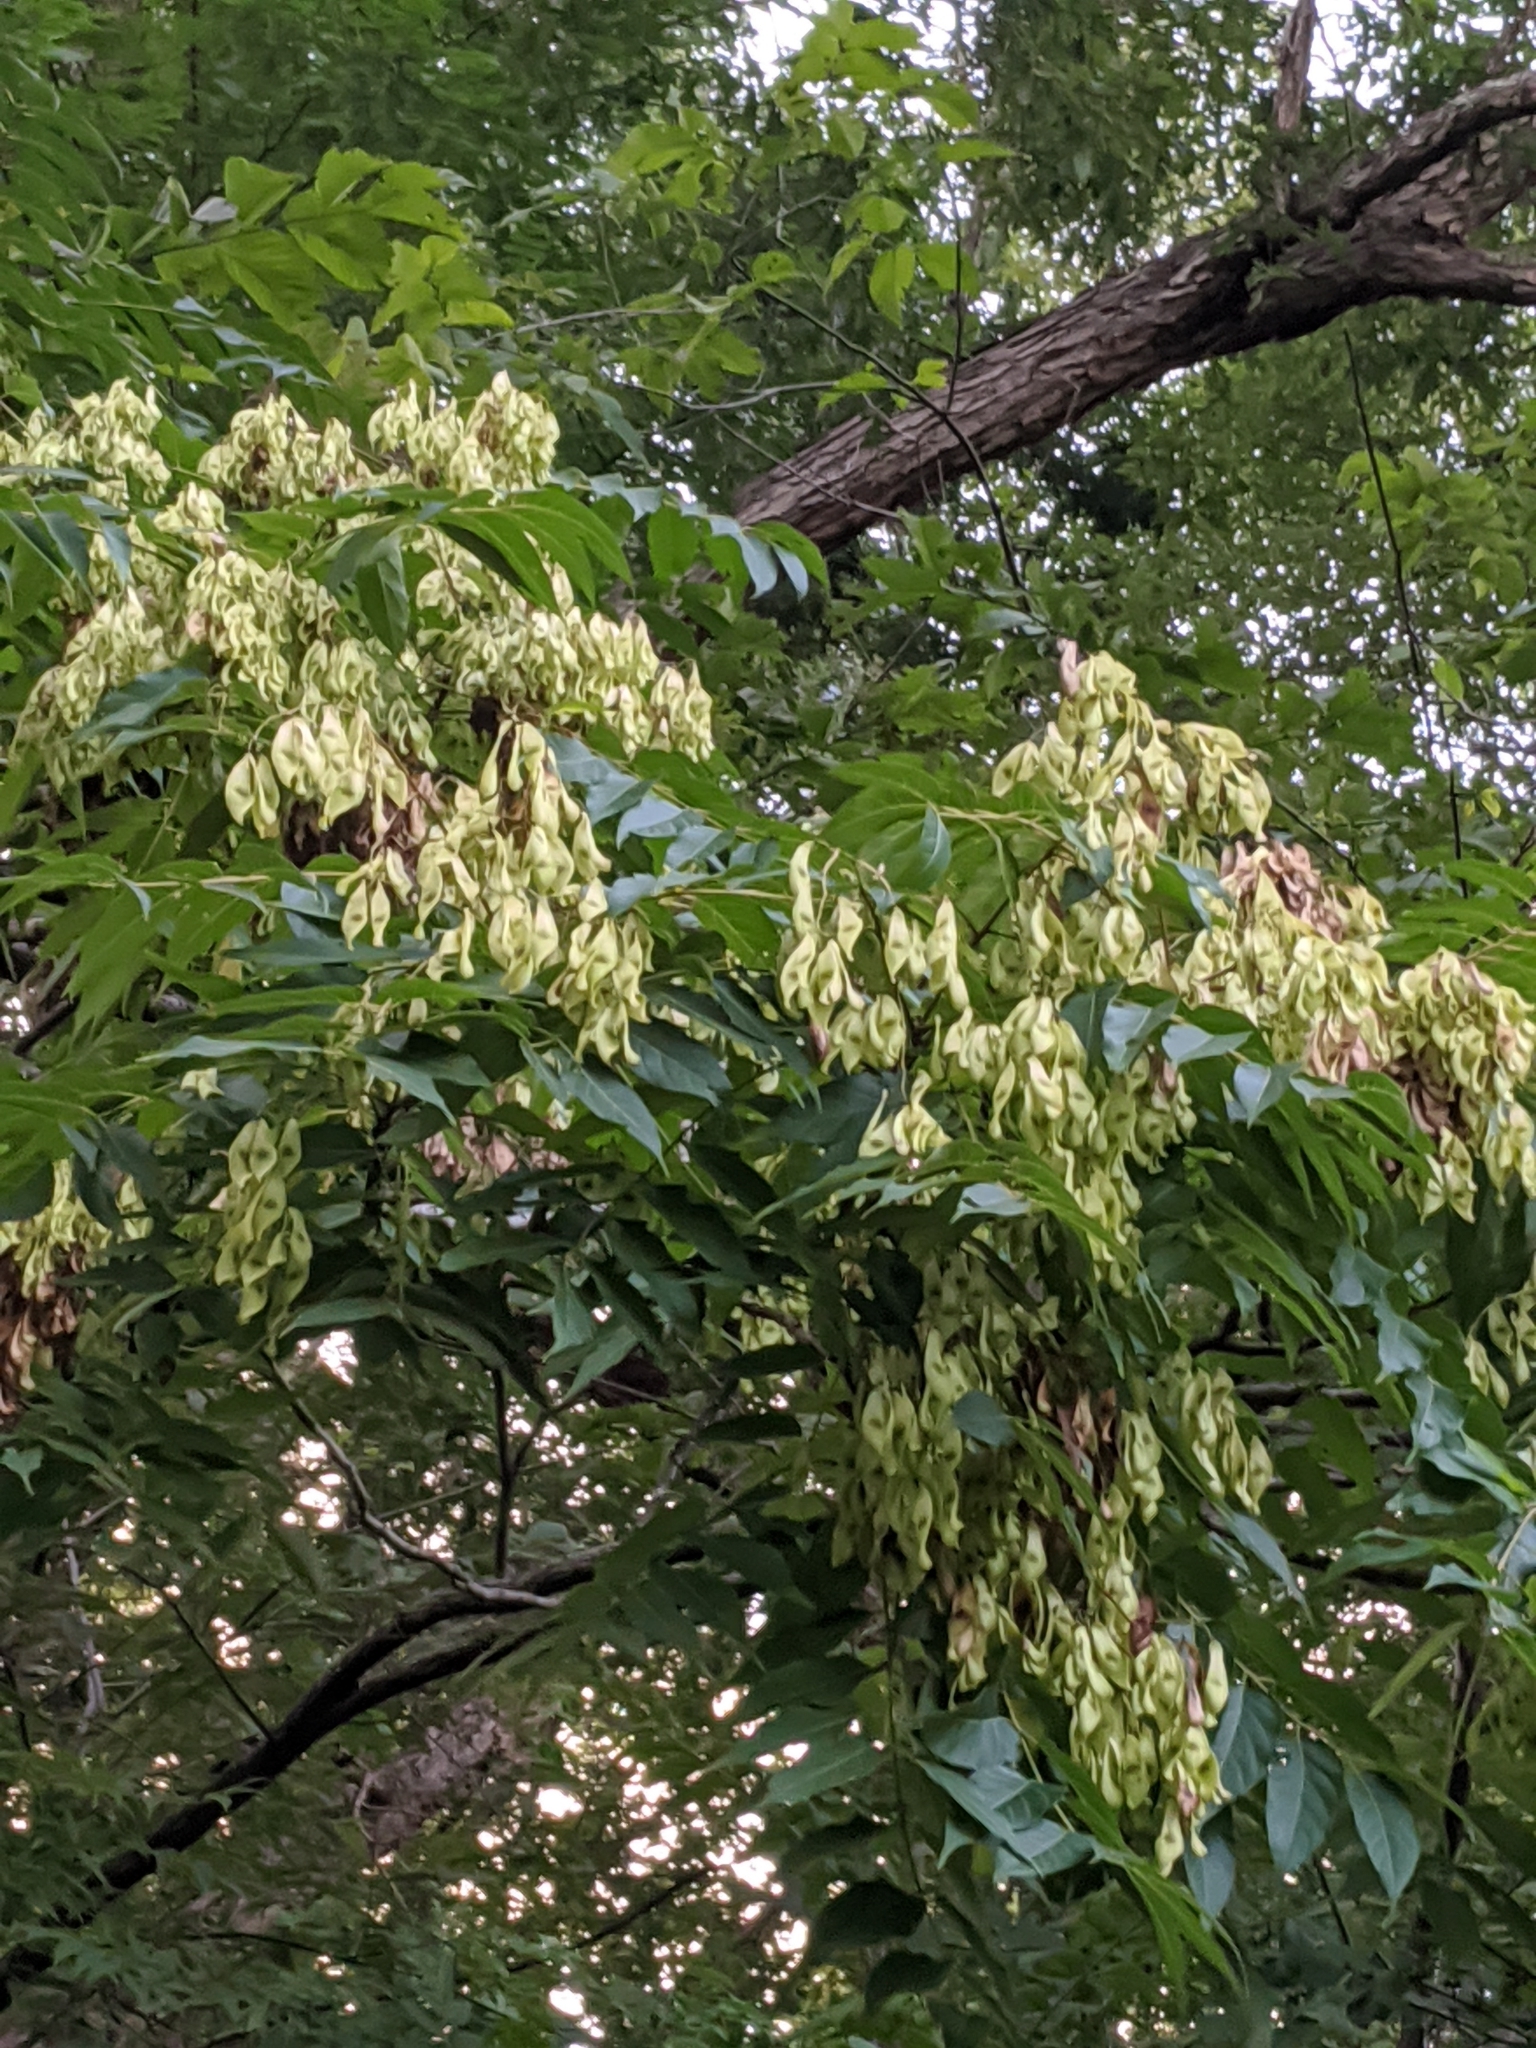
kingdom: Plantae
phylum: Tracheophyta
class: Magnoliopsida
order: Sapindales
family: Simaroubaceae
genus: Ailanthus
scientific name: Ailanthus altissima
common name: Tree-of-heaven
